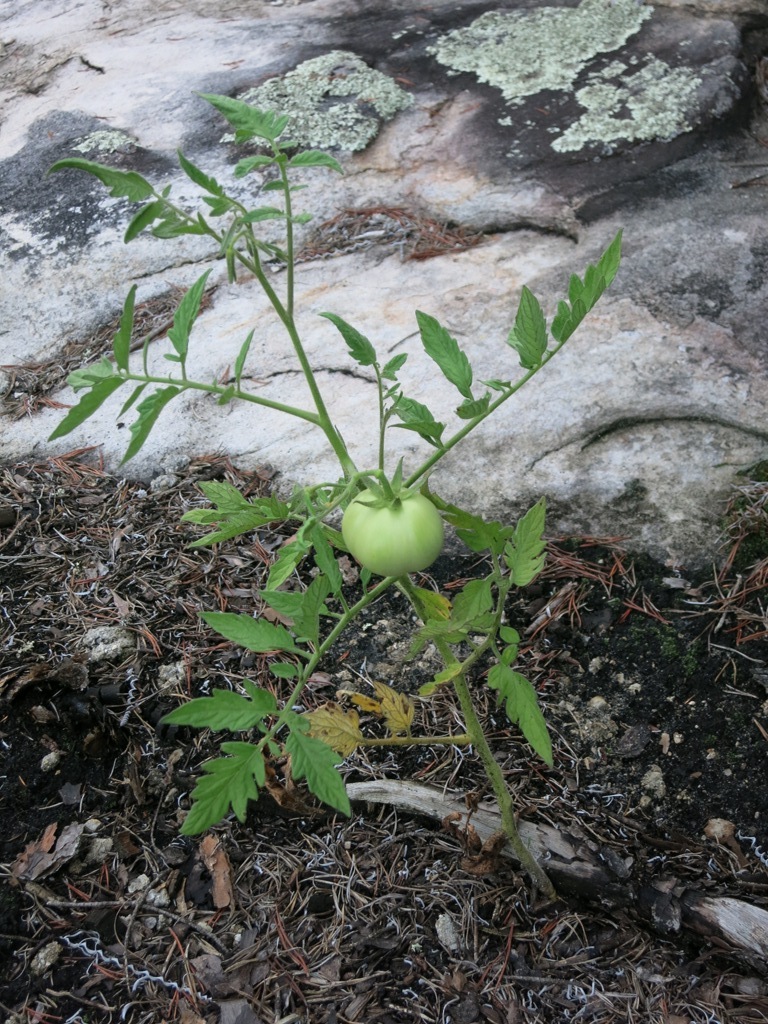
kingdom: Plantae
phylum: Tracheophyta
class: Magnoliopsida
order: Solanales
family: Solanaceae
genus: Solanum
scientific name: Solanum lycopersicum
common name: Garden tomato
